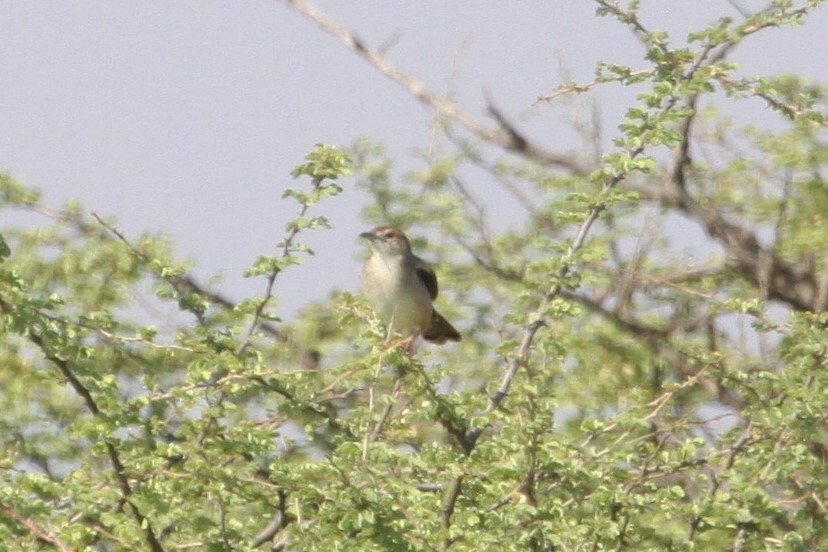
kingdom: Animalia
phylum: Chordata
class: Aves
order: Passeriformes
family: Cisticolidae
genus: Cisticola
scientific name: Cisticola chiniana
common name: Rattling cisticola
